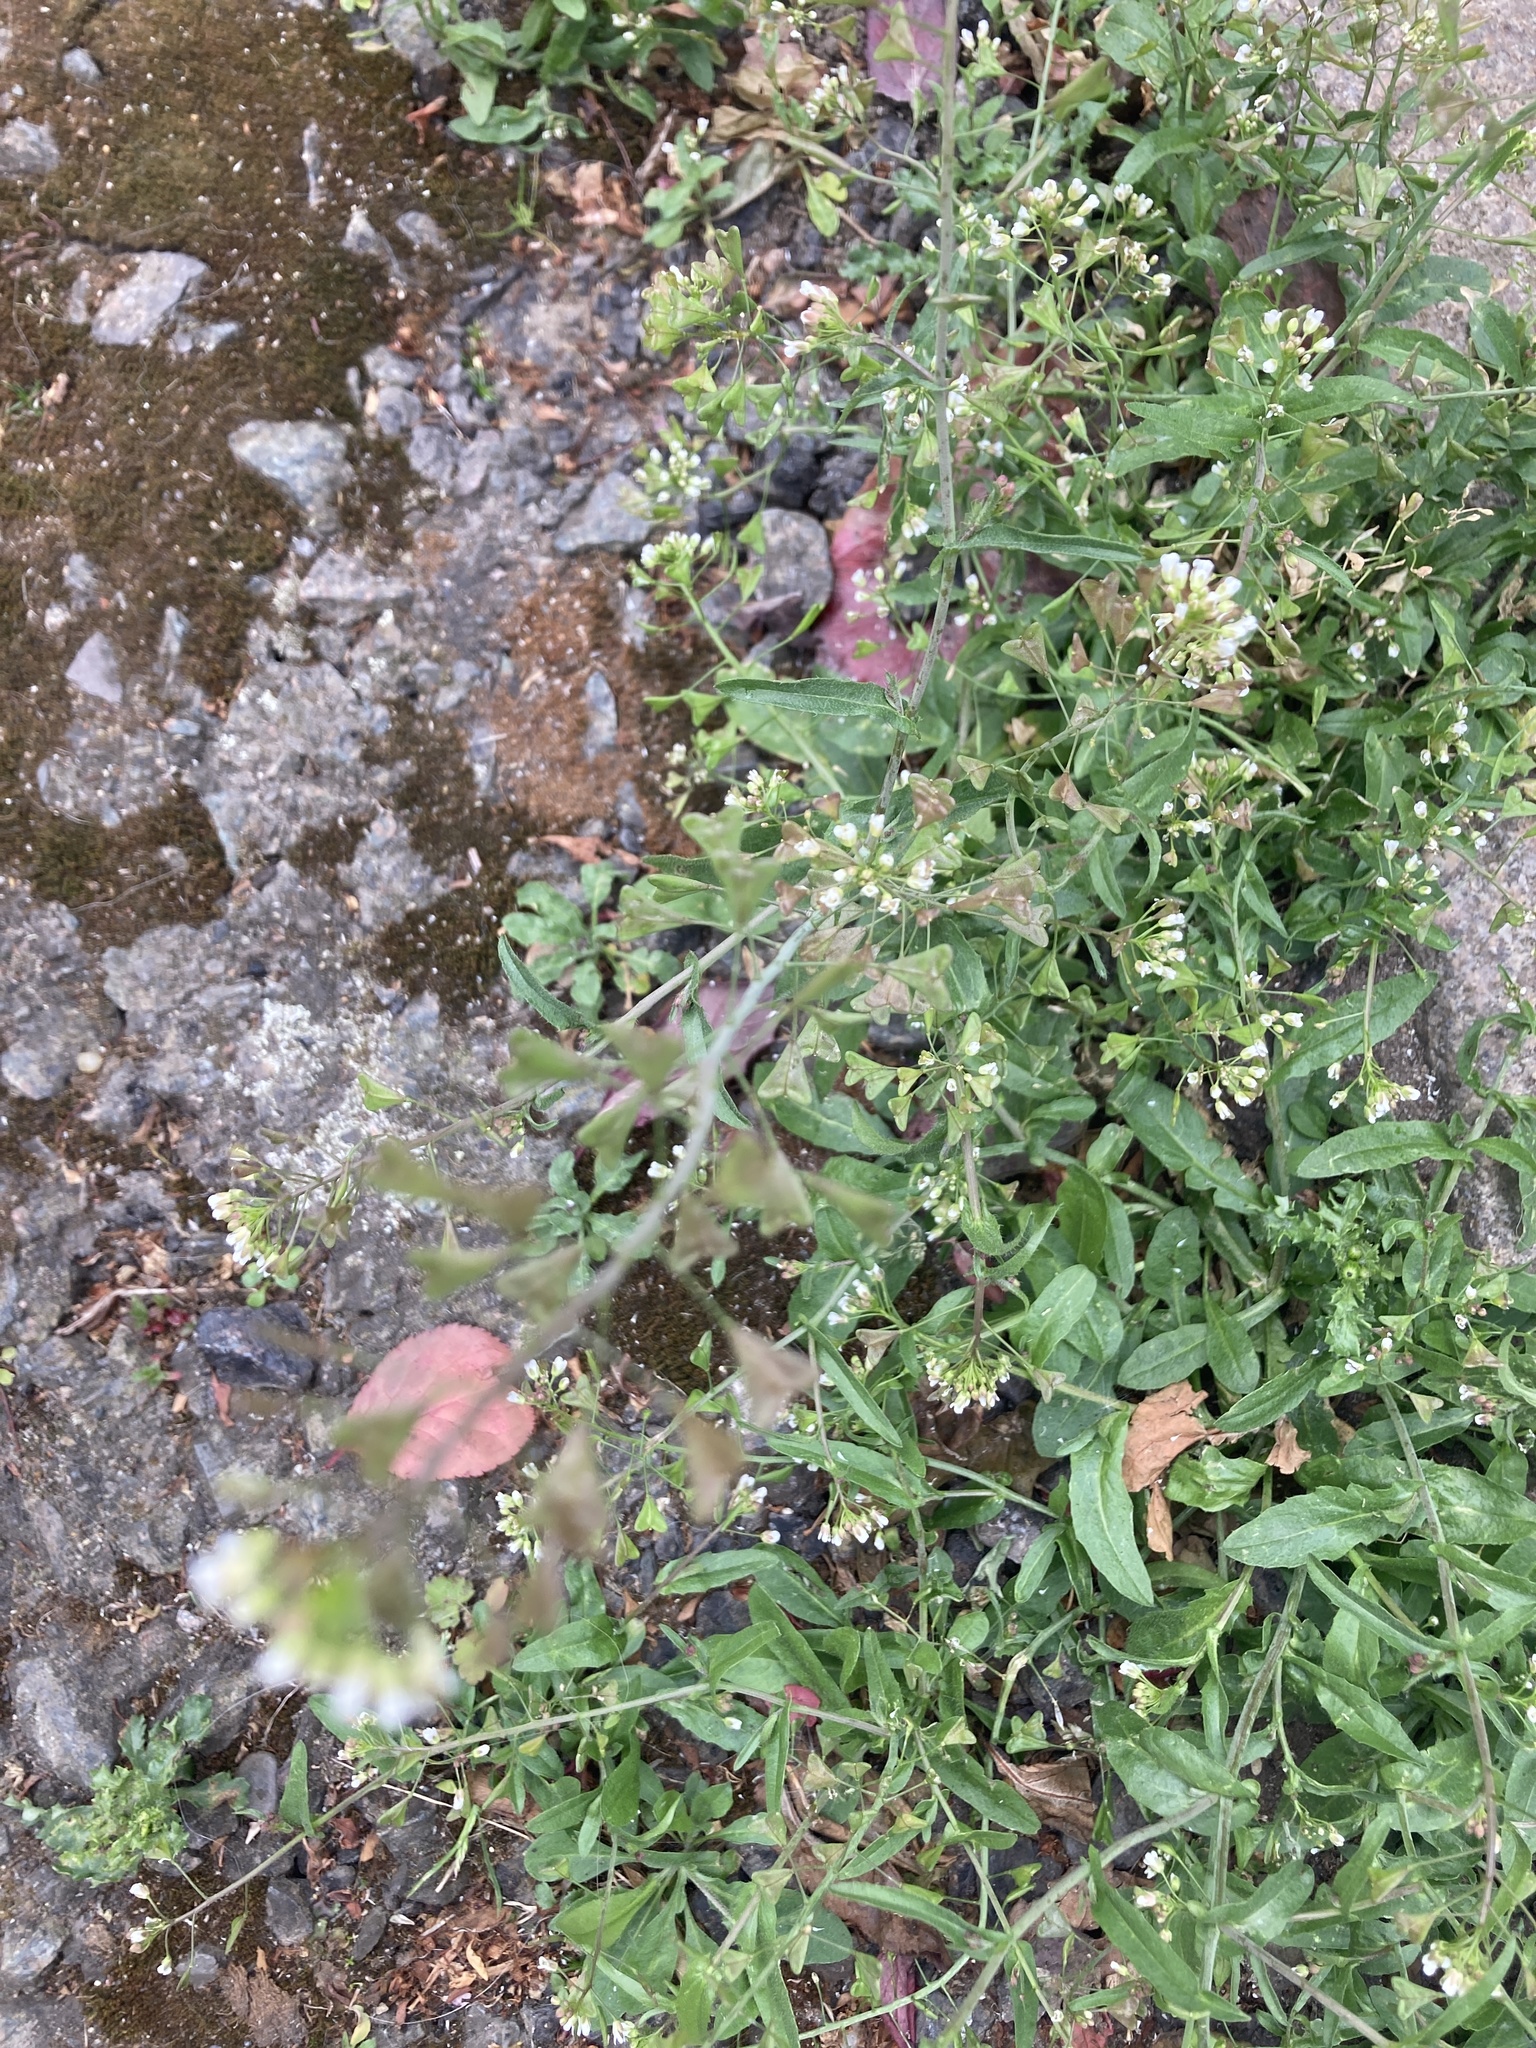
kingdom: Plantae
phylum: Tracheophyta
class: Magnoliopsida
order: Brassicales
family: Brassicaceae
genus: Capsella
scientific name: Capsella bursa-pastoris
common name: Shepherd's purse
